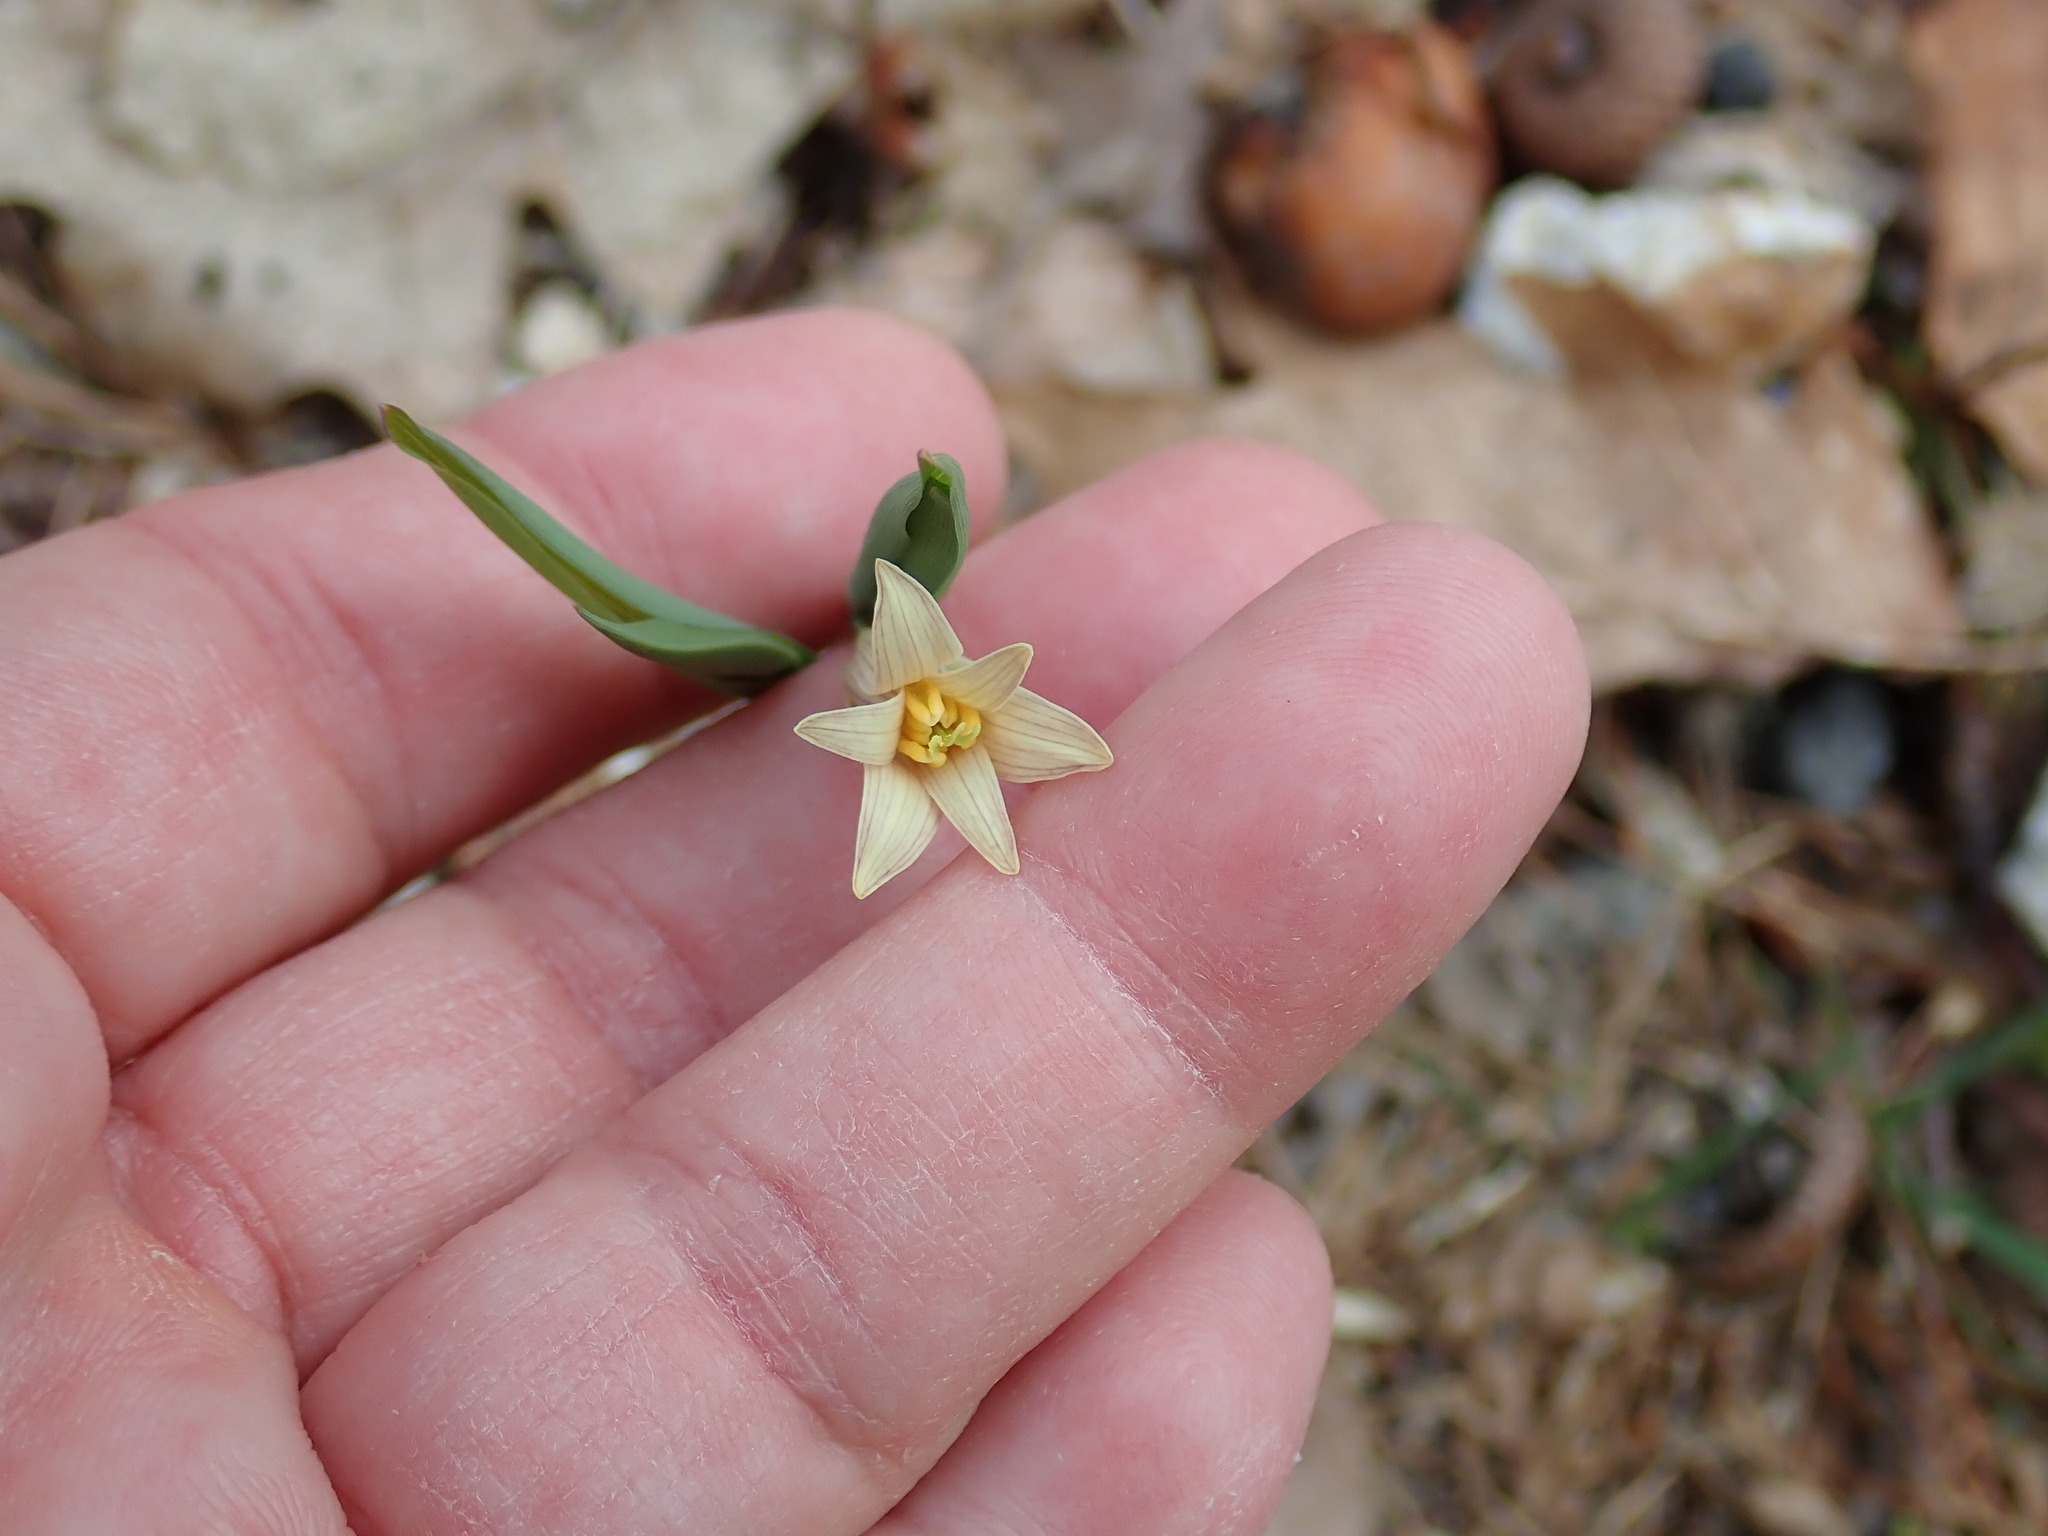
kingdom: Plantae
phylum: Tracheophyta
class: Liliopsida
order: Liliales
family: Colchicaceae
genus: Uvularia
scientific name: Uvularia sessilifolia
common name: Straw-lily
